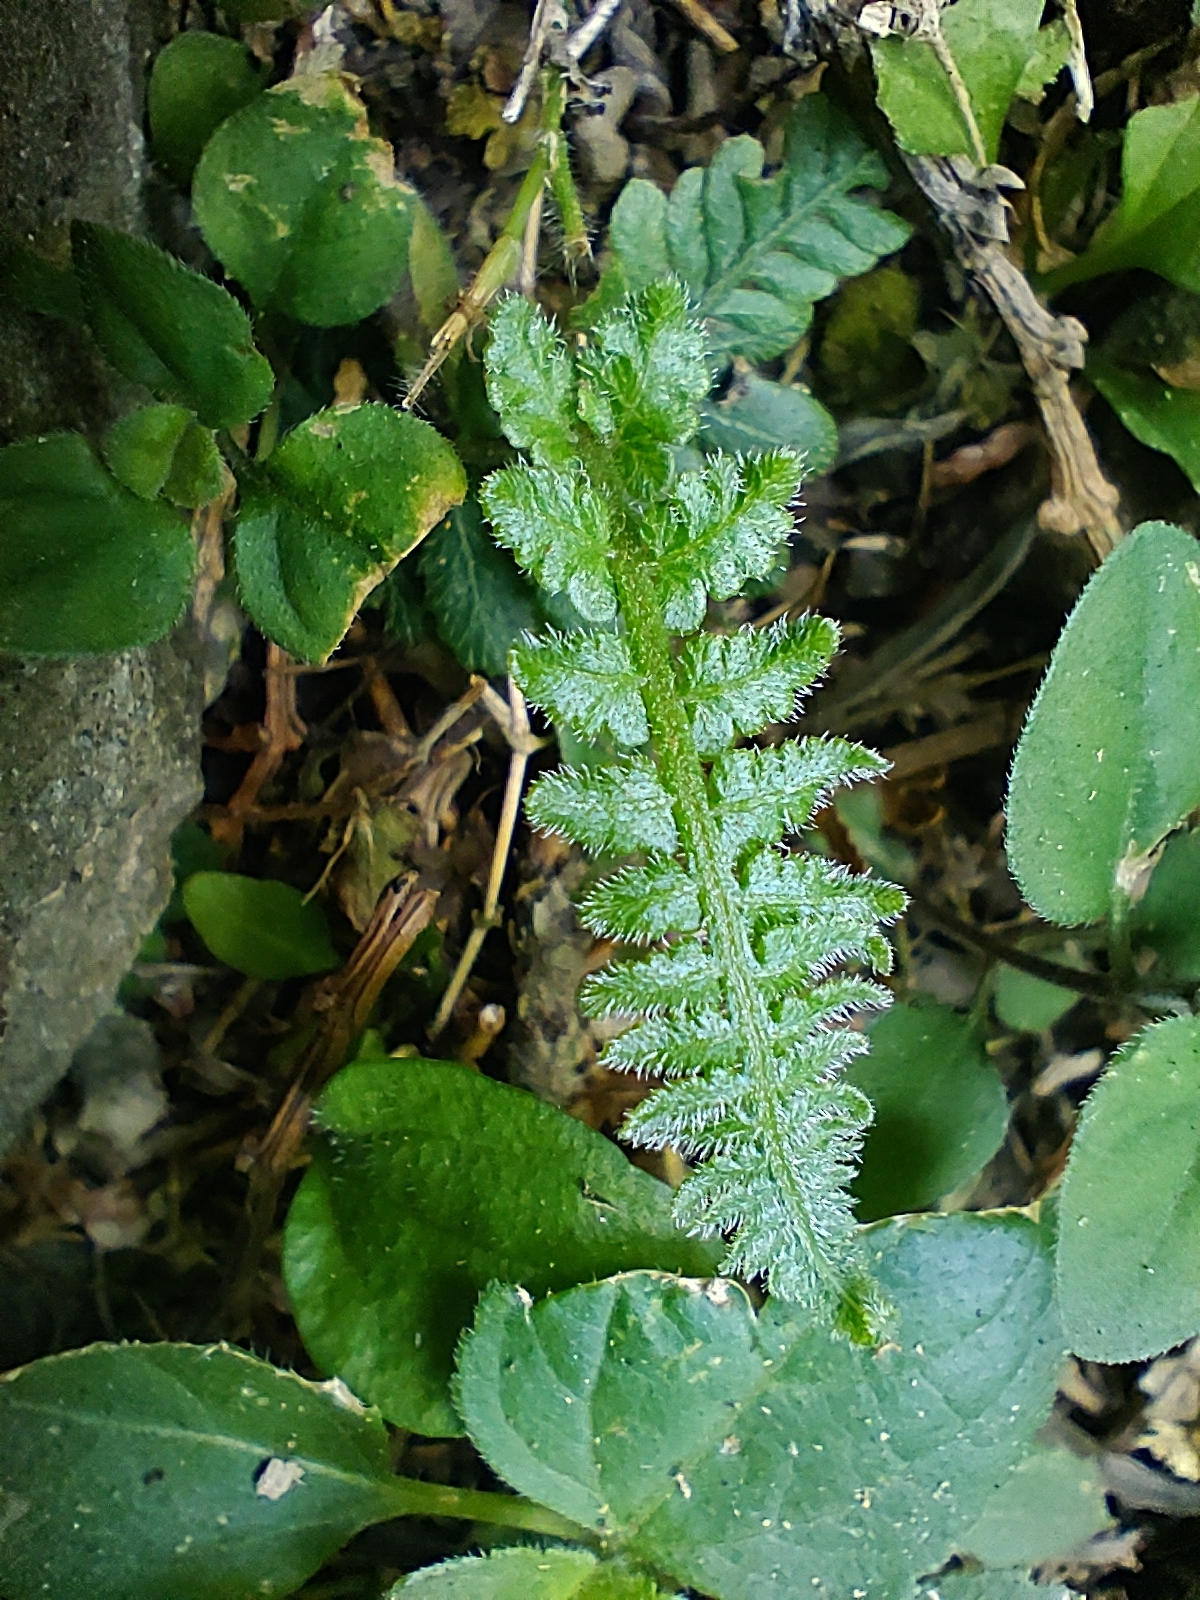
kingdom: Plantae
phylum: Tracheophyta
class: Polypodiopsida
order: Polypodiales
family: Athyriaceae
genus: Deparia
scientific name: Deparia petersenii
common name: Japanese false spleenwort
